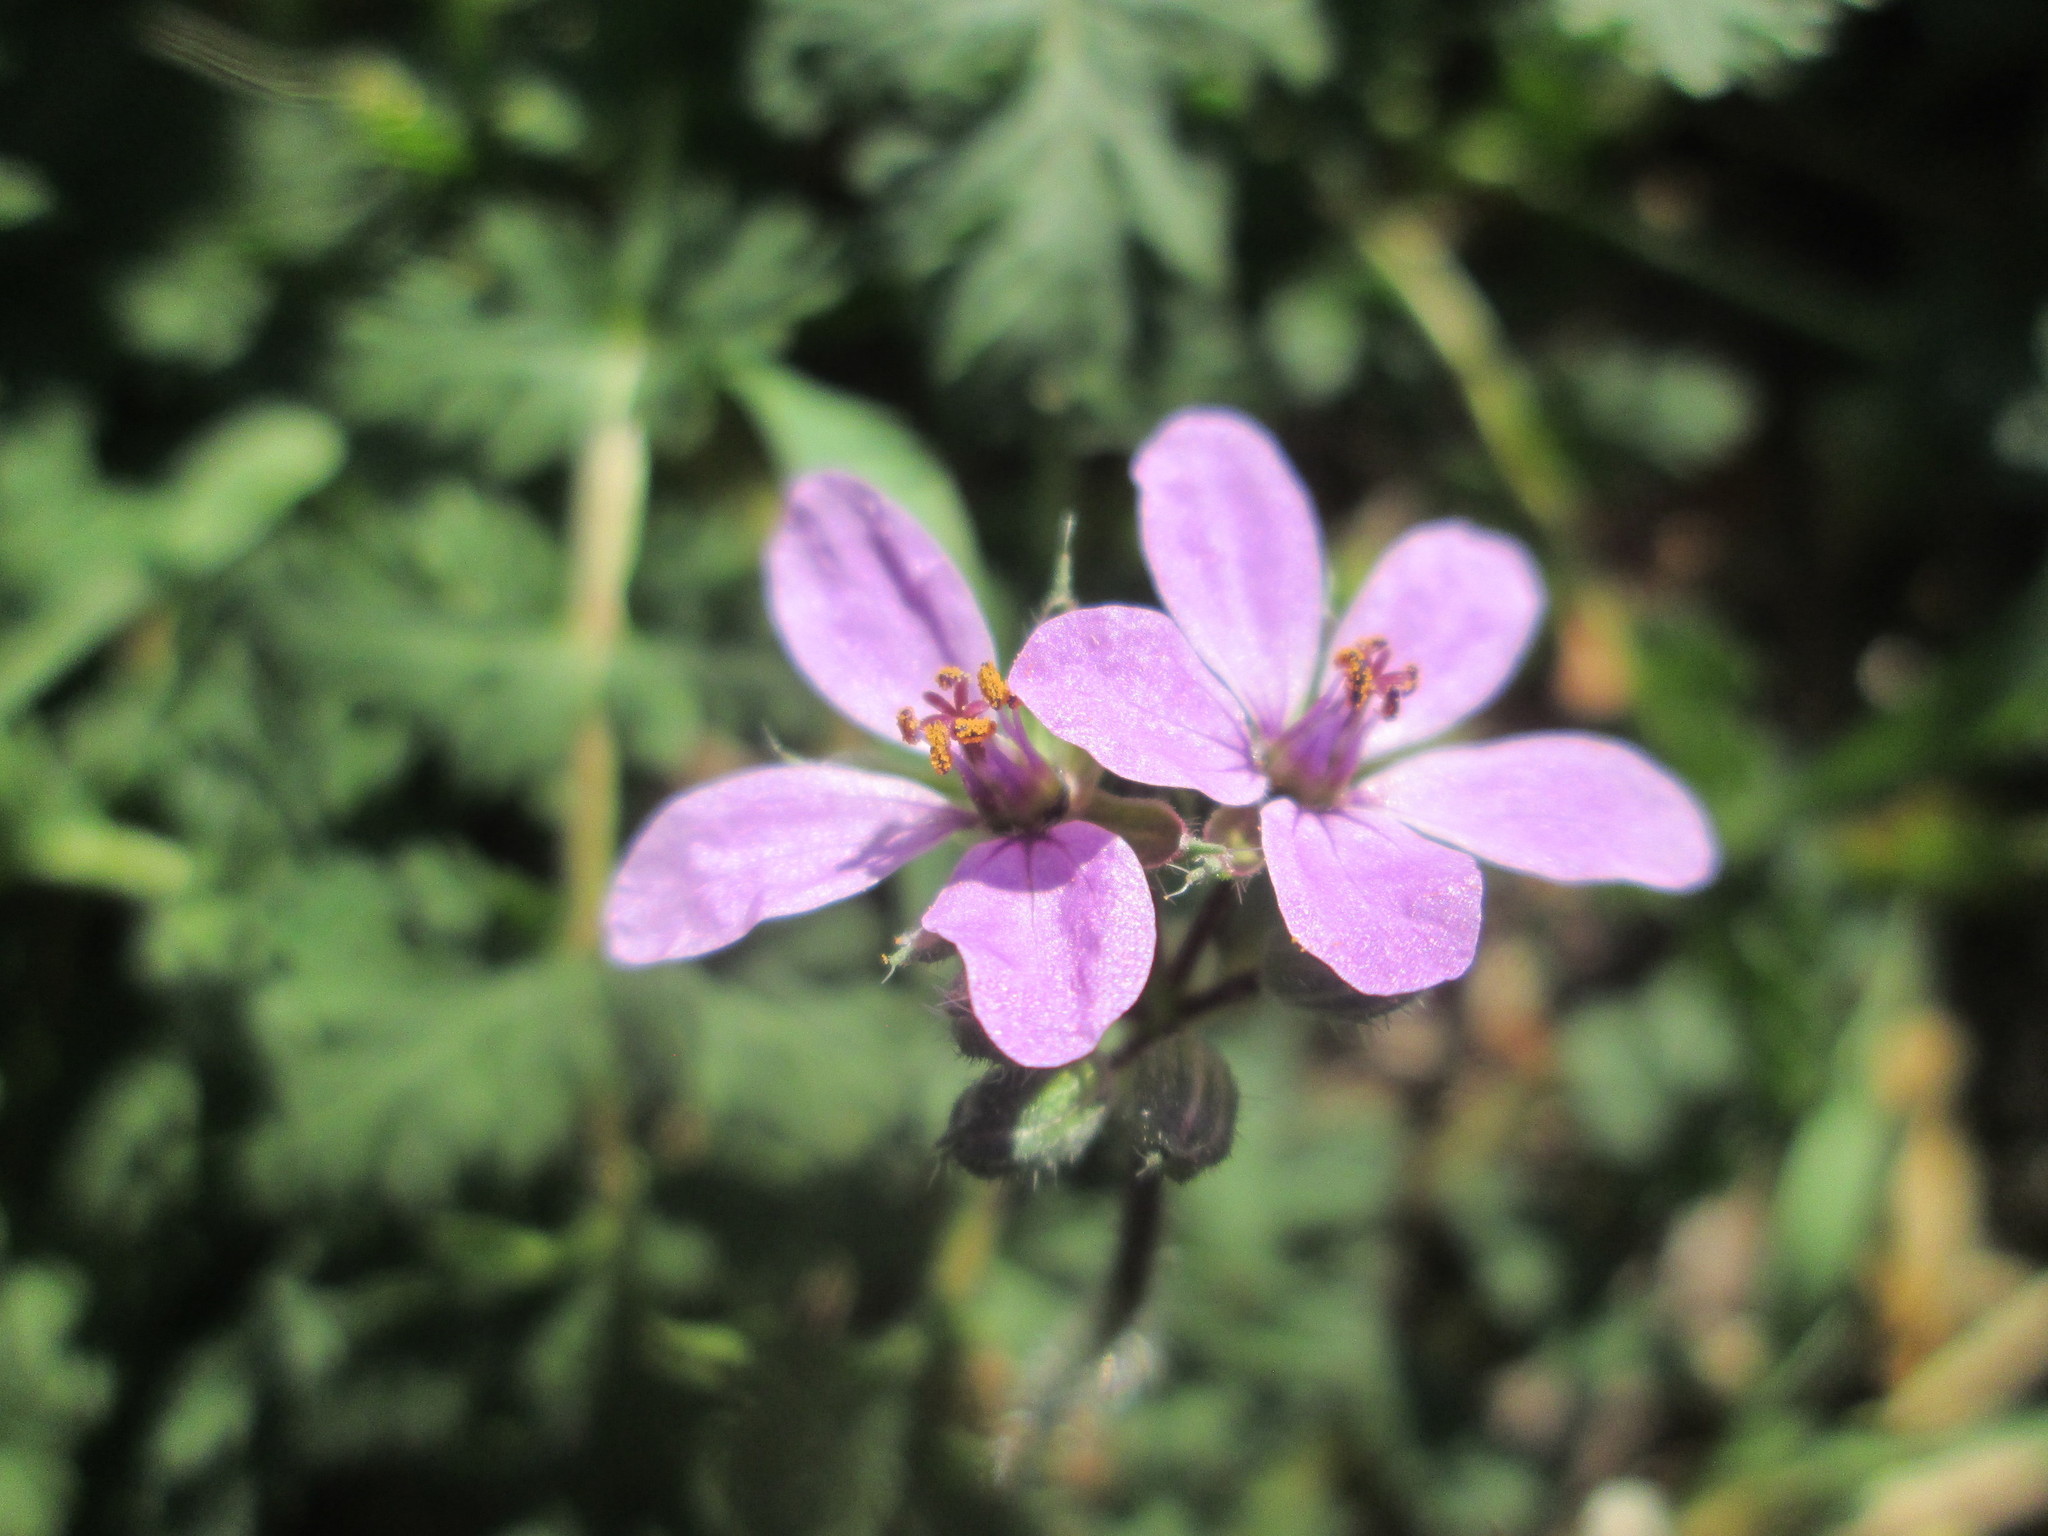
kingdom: Plantae
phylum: Tracheophyta
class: Magnoliopsida
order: Geraniales
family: Geraniaceae
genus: Erodium
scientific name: Erodium cicutarium
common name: Common stork's-bill
